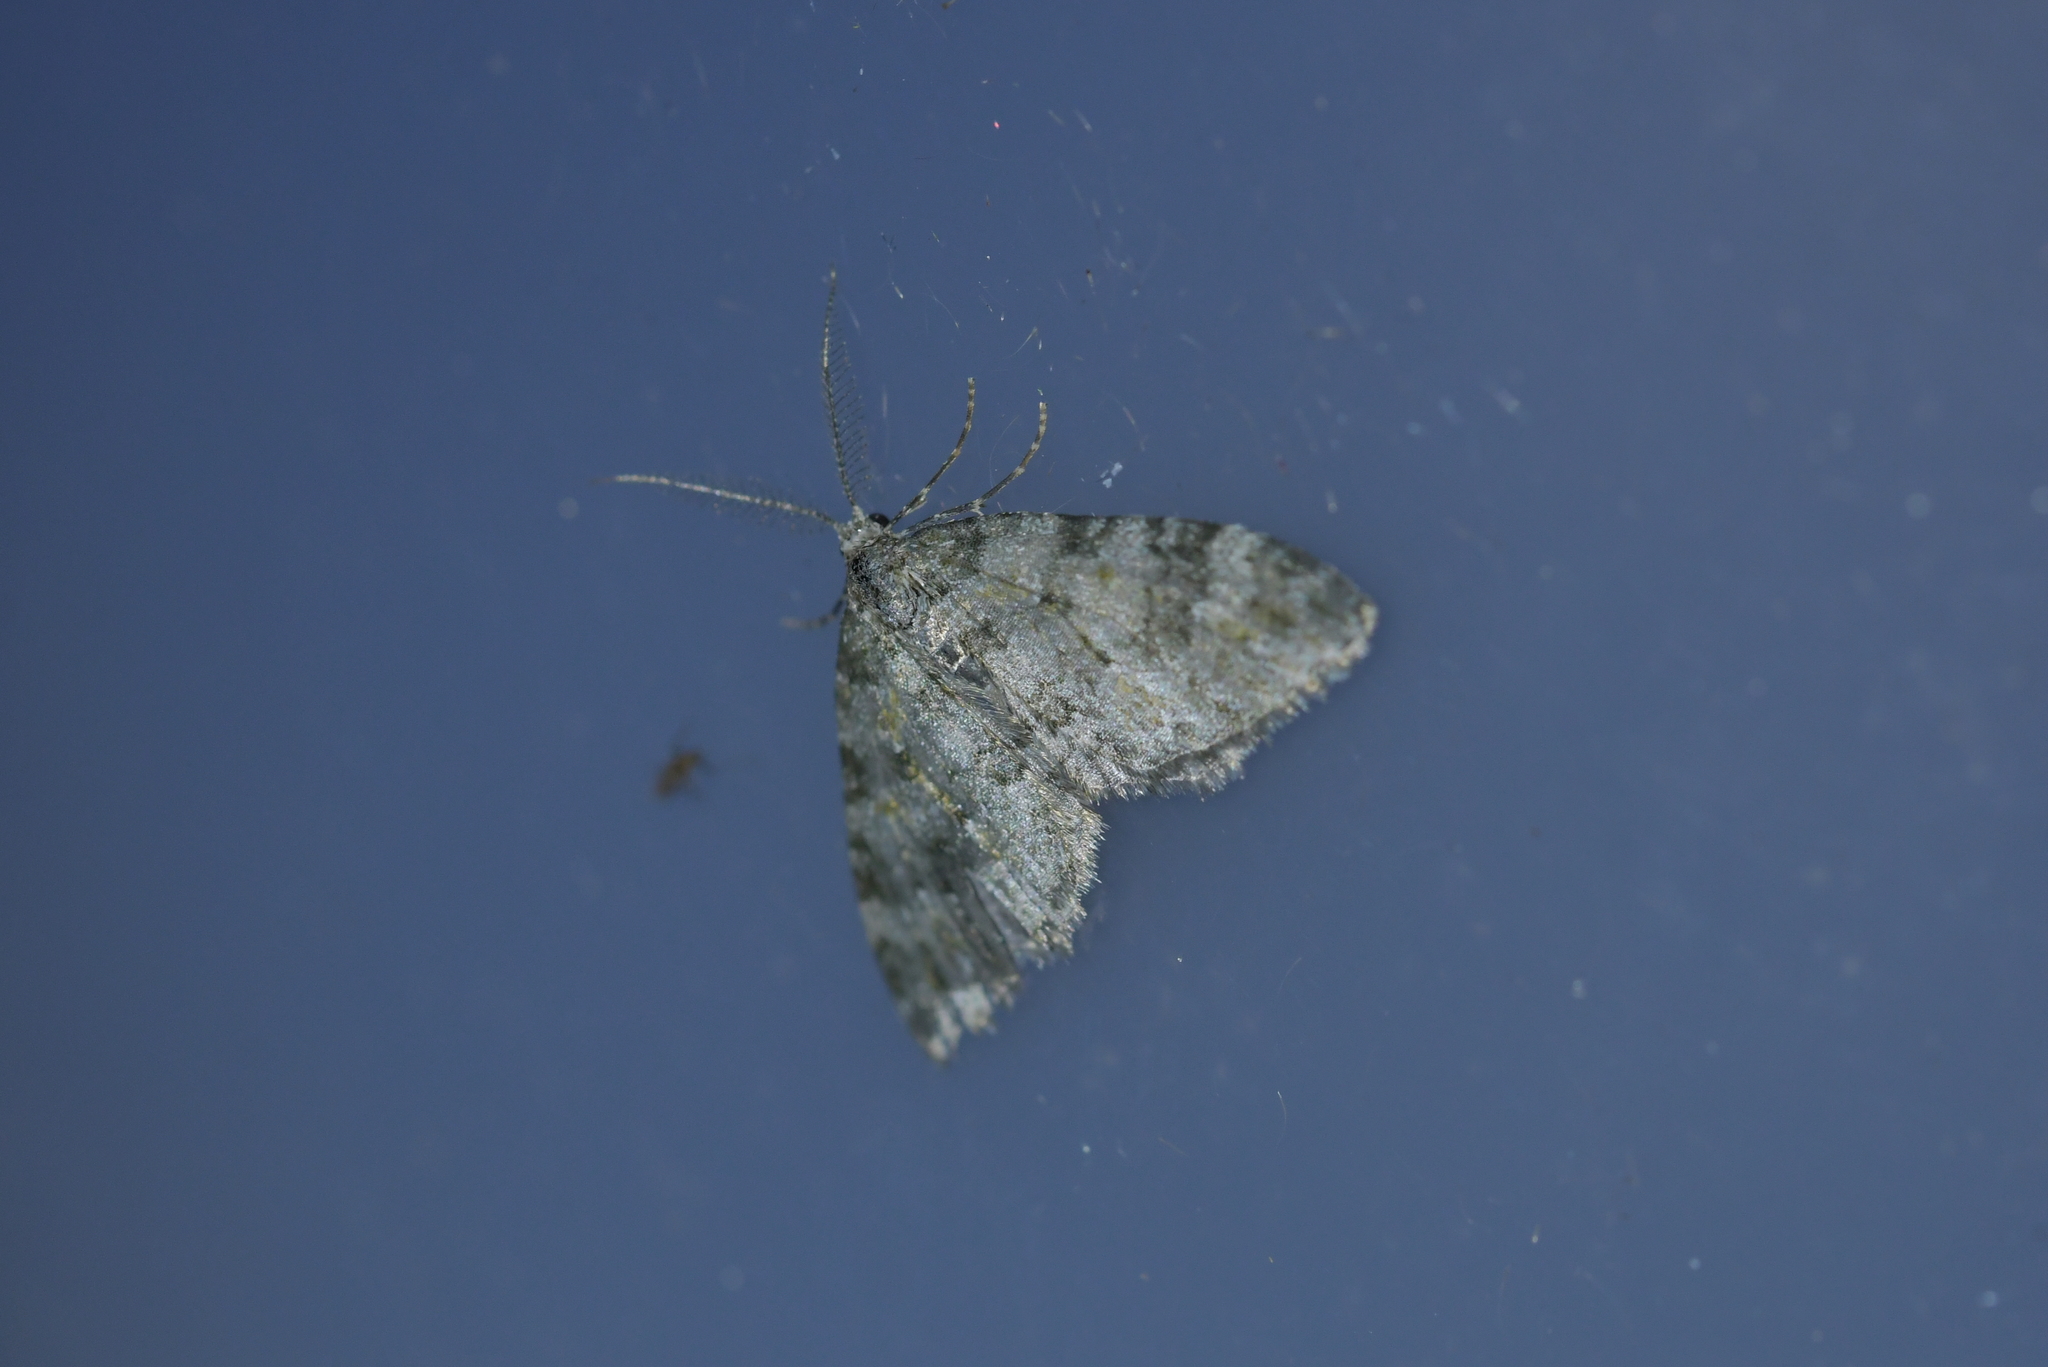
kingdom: Animalia
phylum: Arthropoda
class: Insecta
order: Lepidoptera
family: Geometridae
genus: Helastia
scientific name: Helastia plumbea
